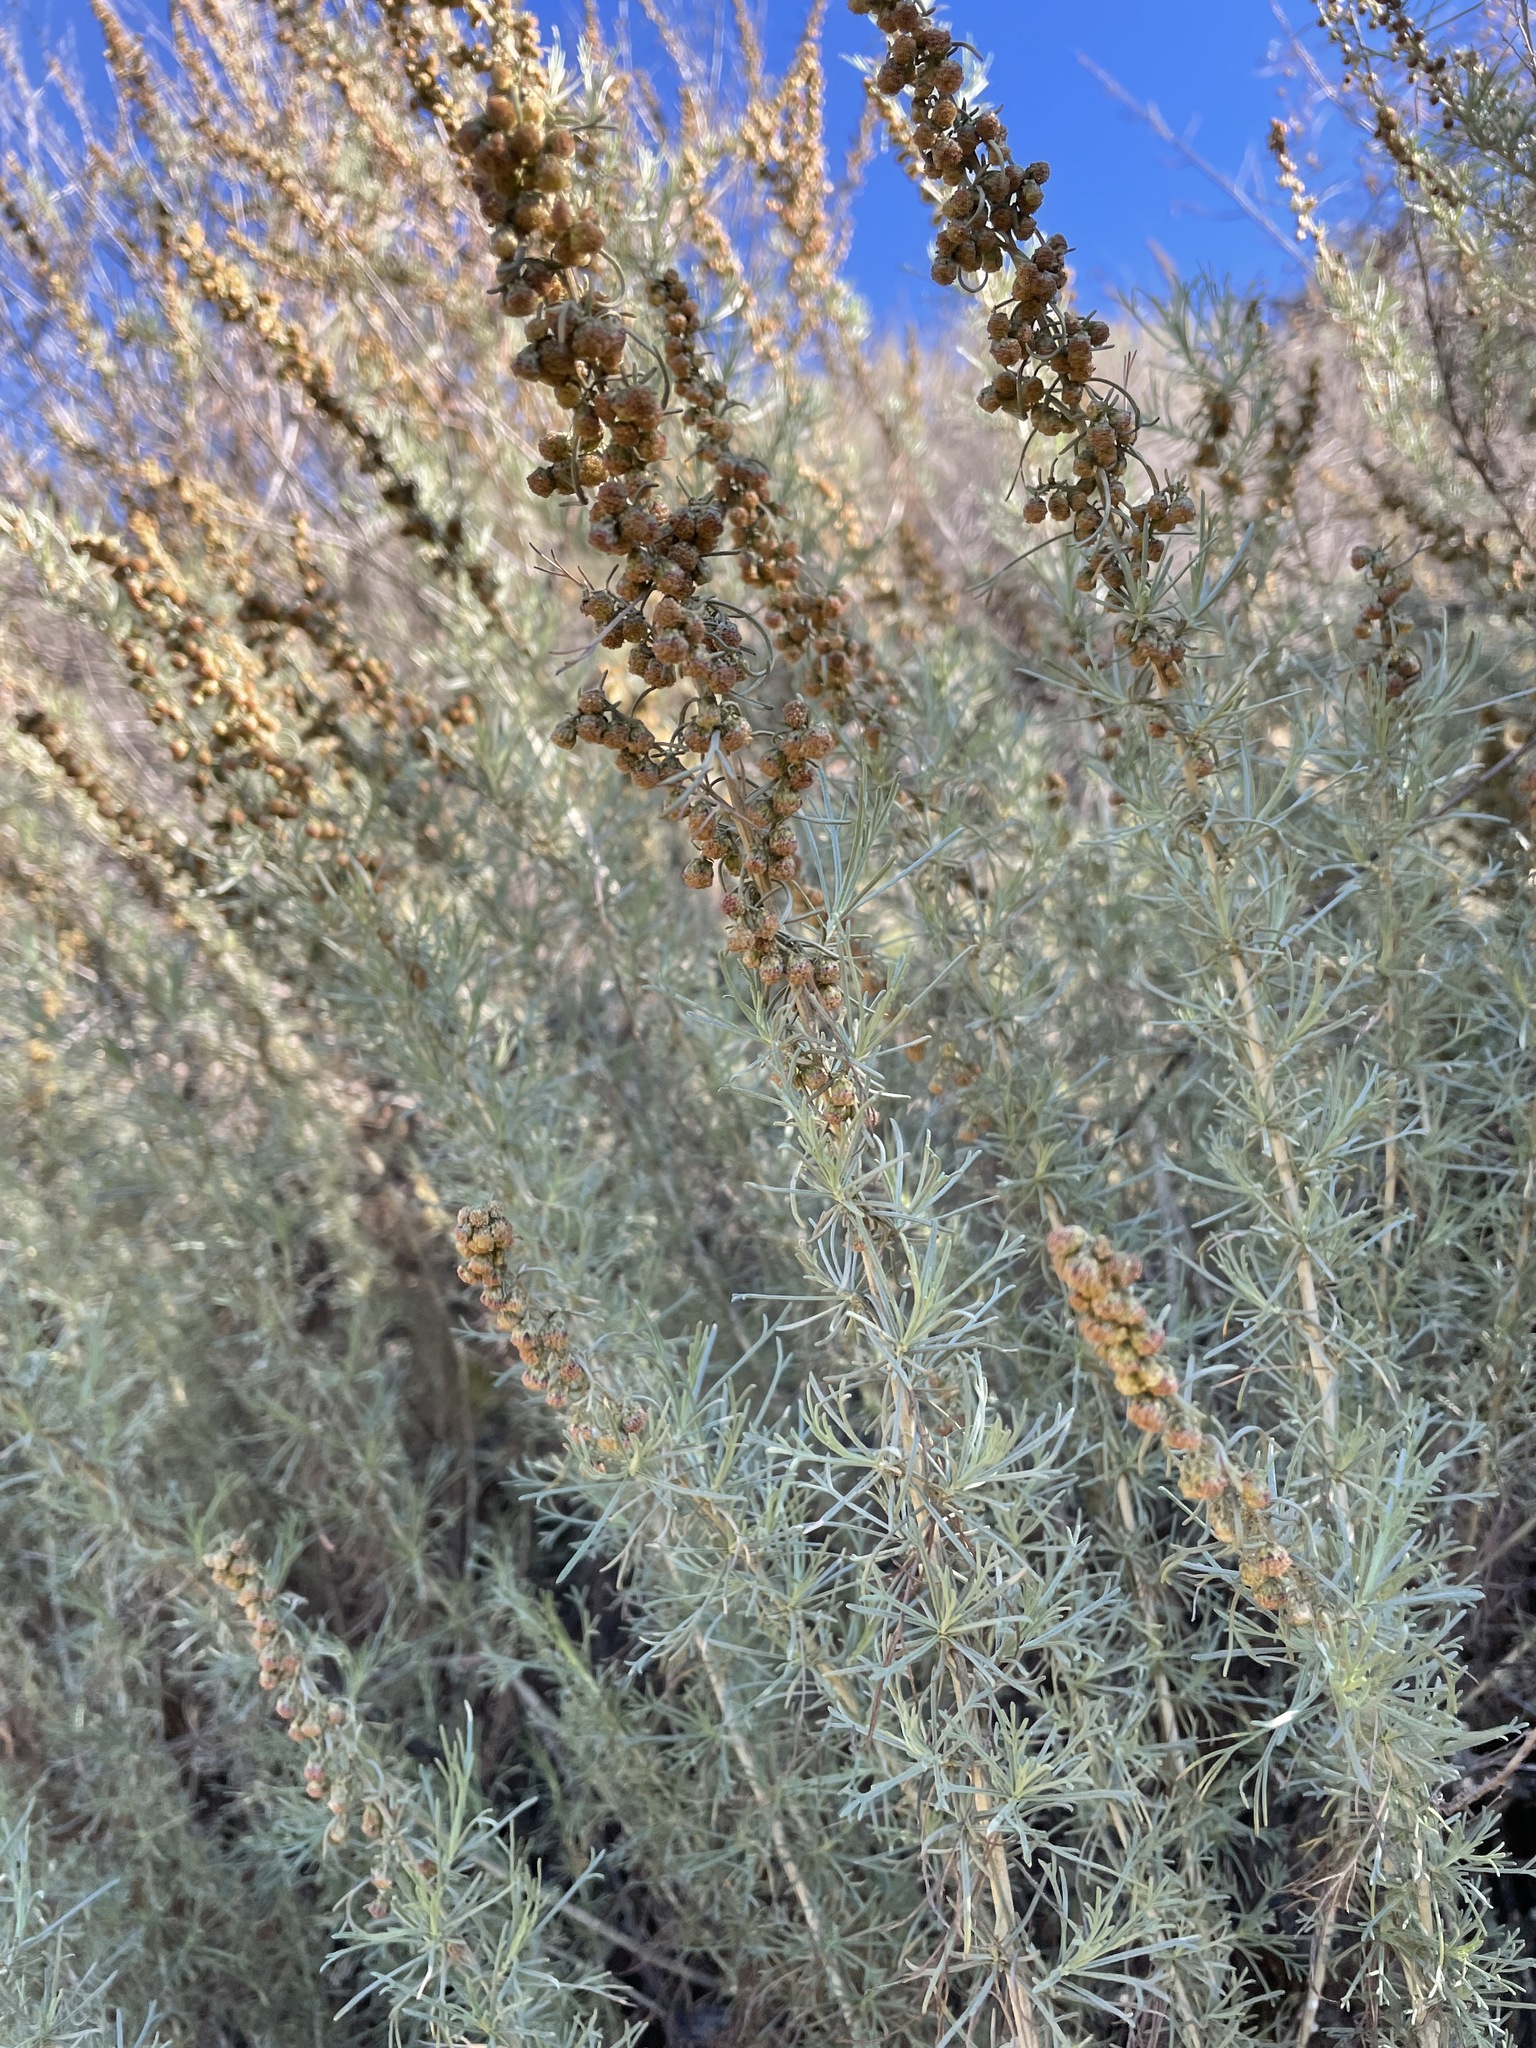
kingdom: Plantae
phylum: Tracheophyta
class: Magnoliopsida
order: Asterales
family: Asteraceae
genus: Artemisia
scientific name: Artemisia californica
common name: California sagebrush
